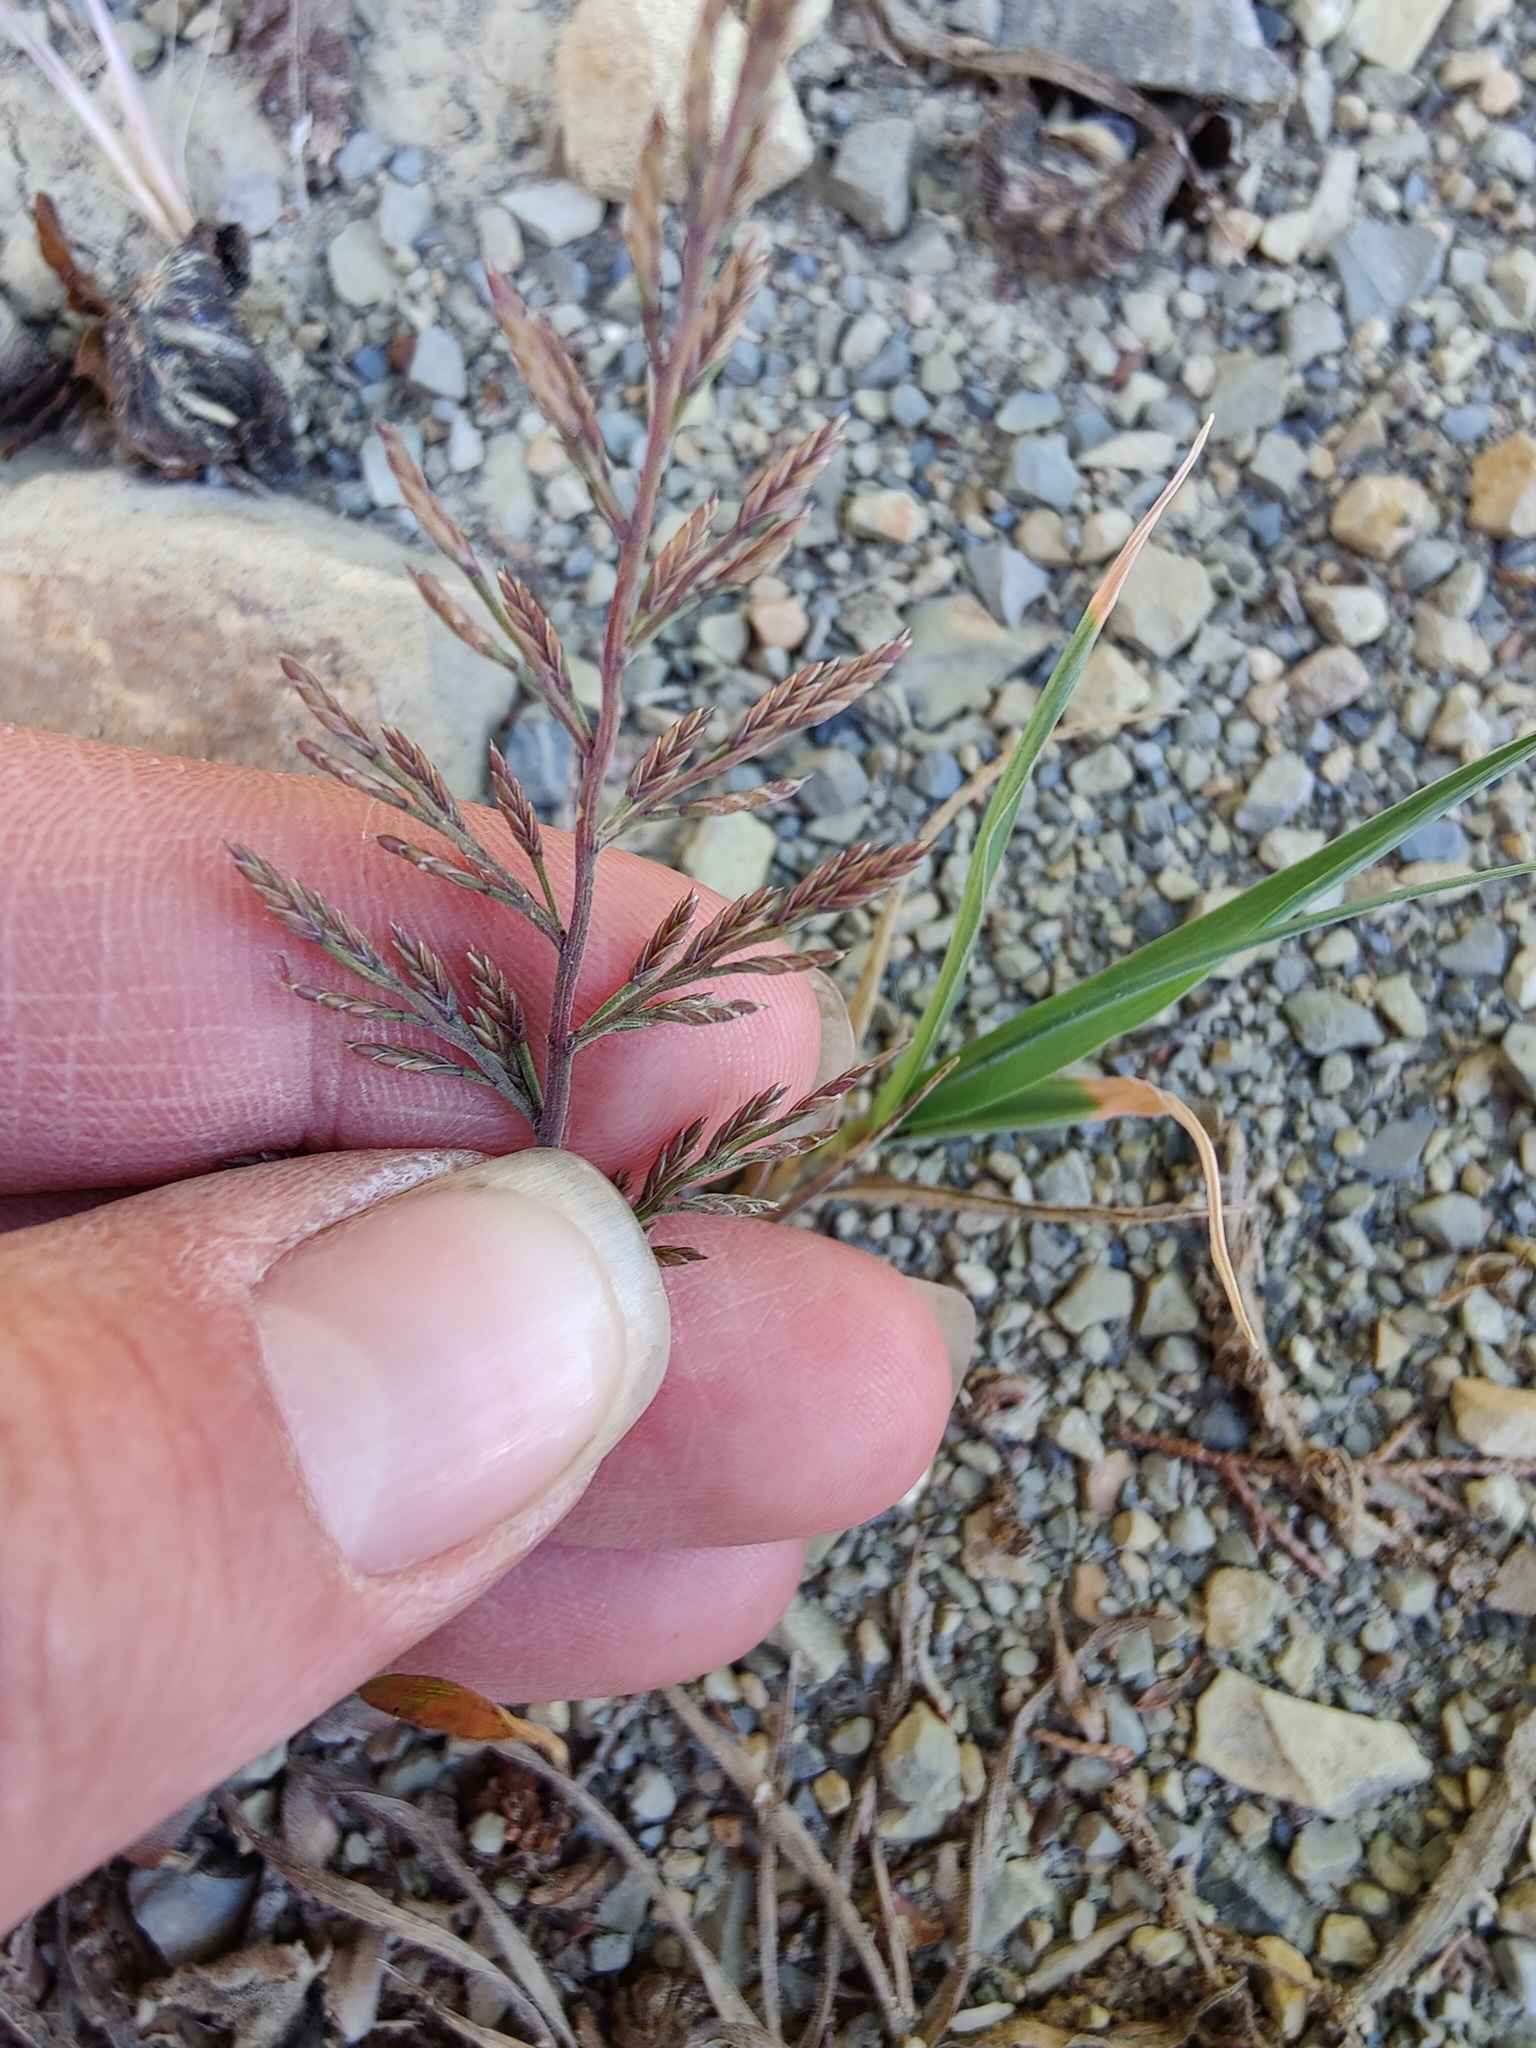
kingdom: Plantae
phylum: Tracheophyta
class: Liliopsida
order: Poales
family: Poaceae
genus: Catapodium
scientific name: Catapodium rigidum
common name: Fern-grass
